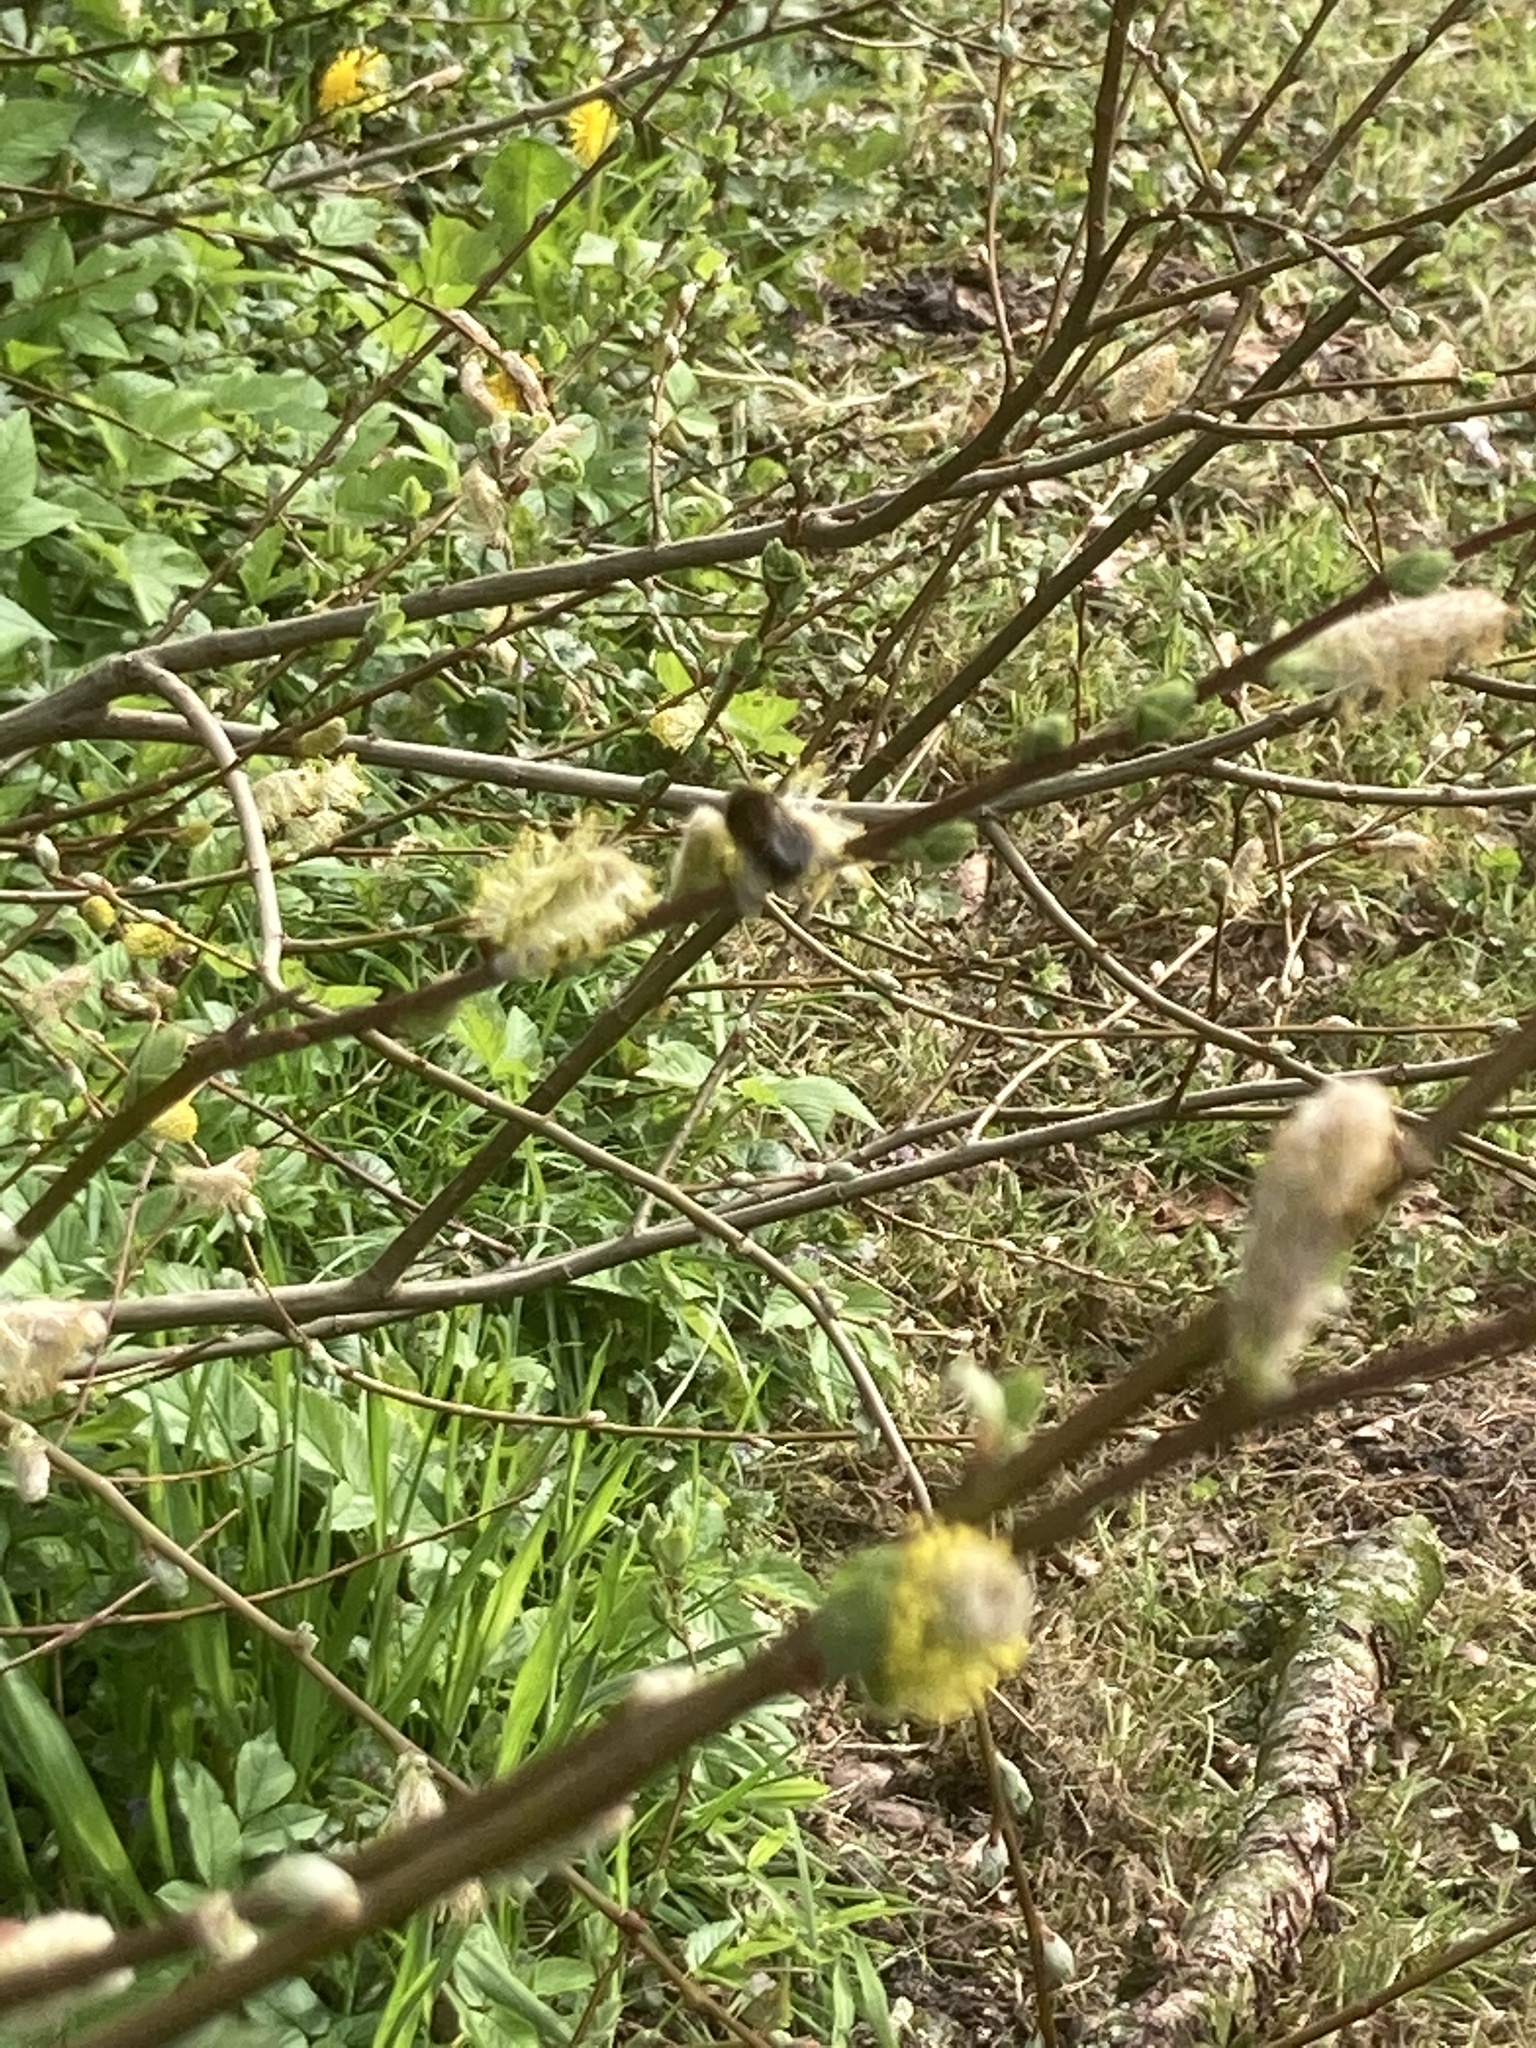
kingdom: Animalia
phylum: Arthropoda
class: Insecta
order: Hymenoptera
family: Apidae
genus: Bombus
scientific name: Bombus hypnorum
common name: New garden bumblebee
